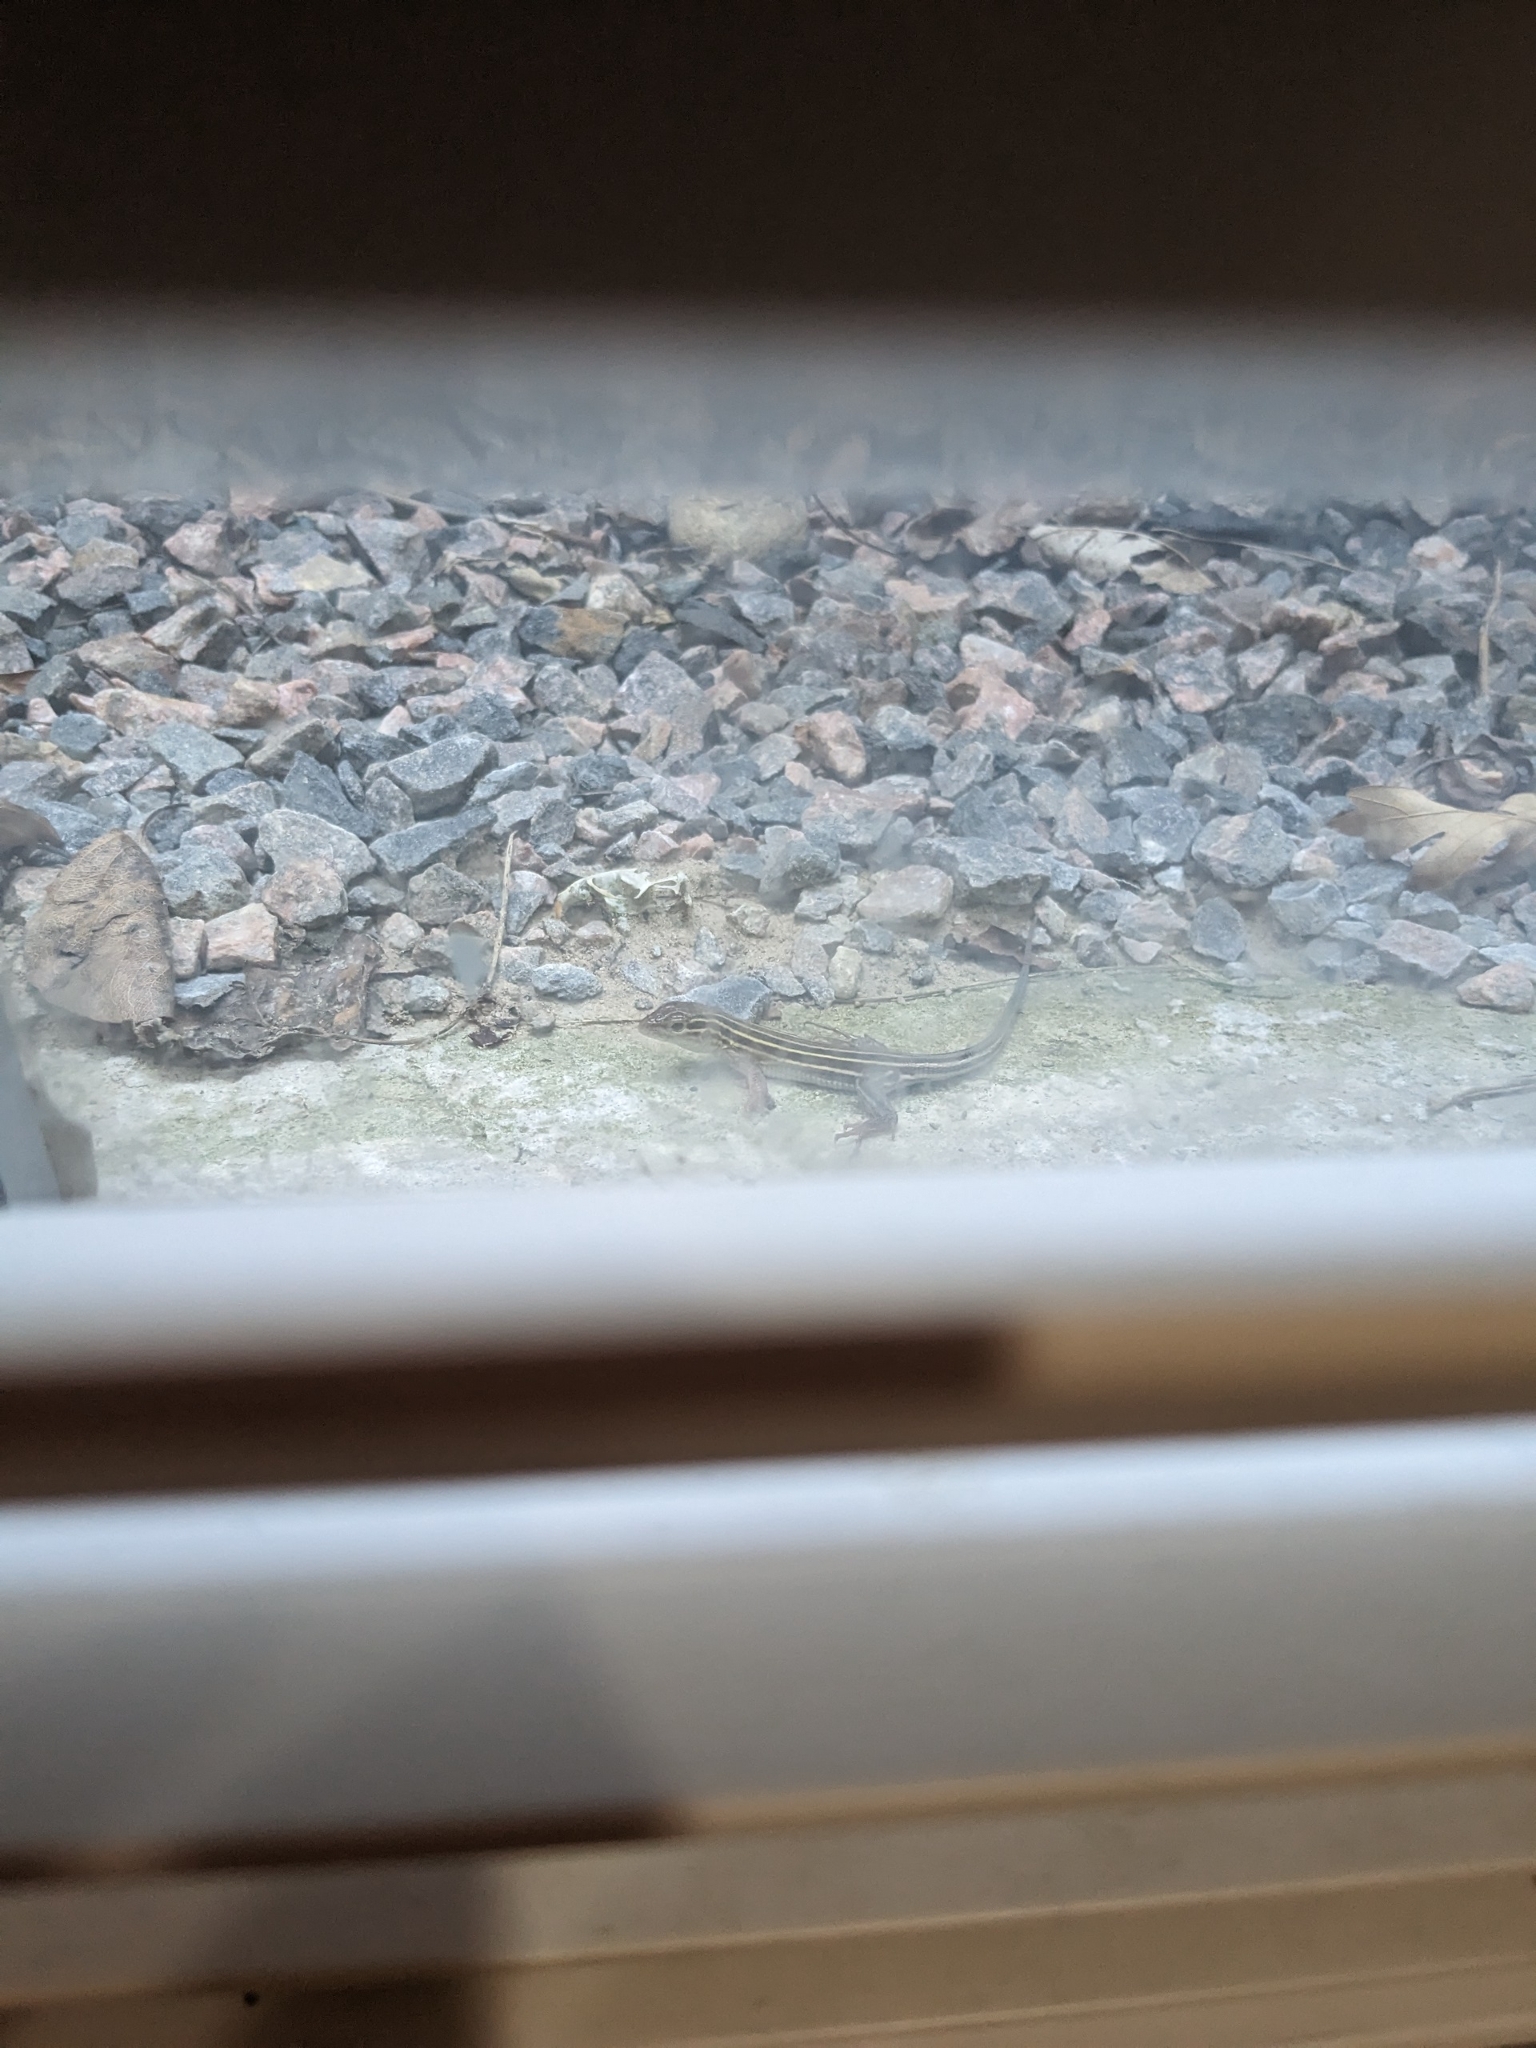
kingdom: Animalia
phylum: Chordata
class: Squamata
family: Teiidae
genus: Aspidoscelis
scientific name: Aspidoscelis sexlineatus
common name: Six-lined racerunner
